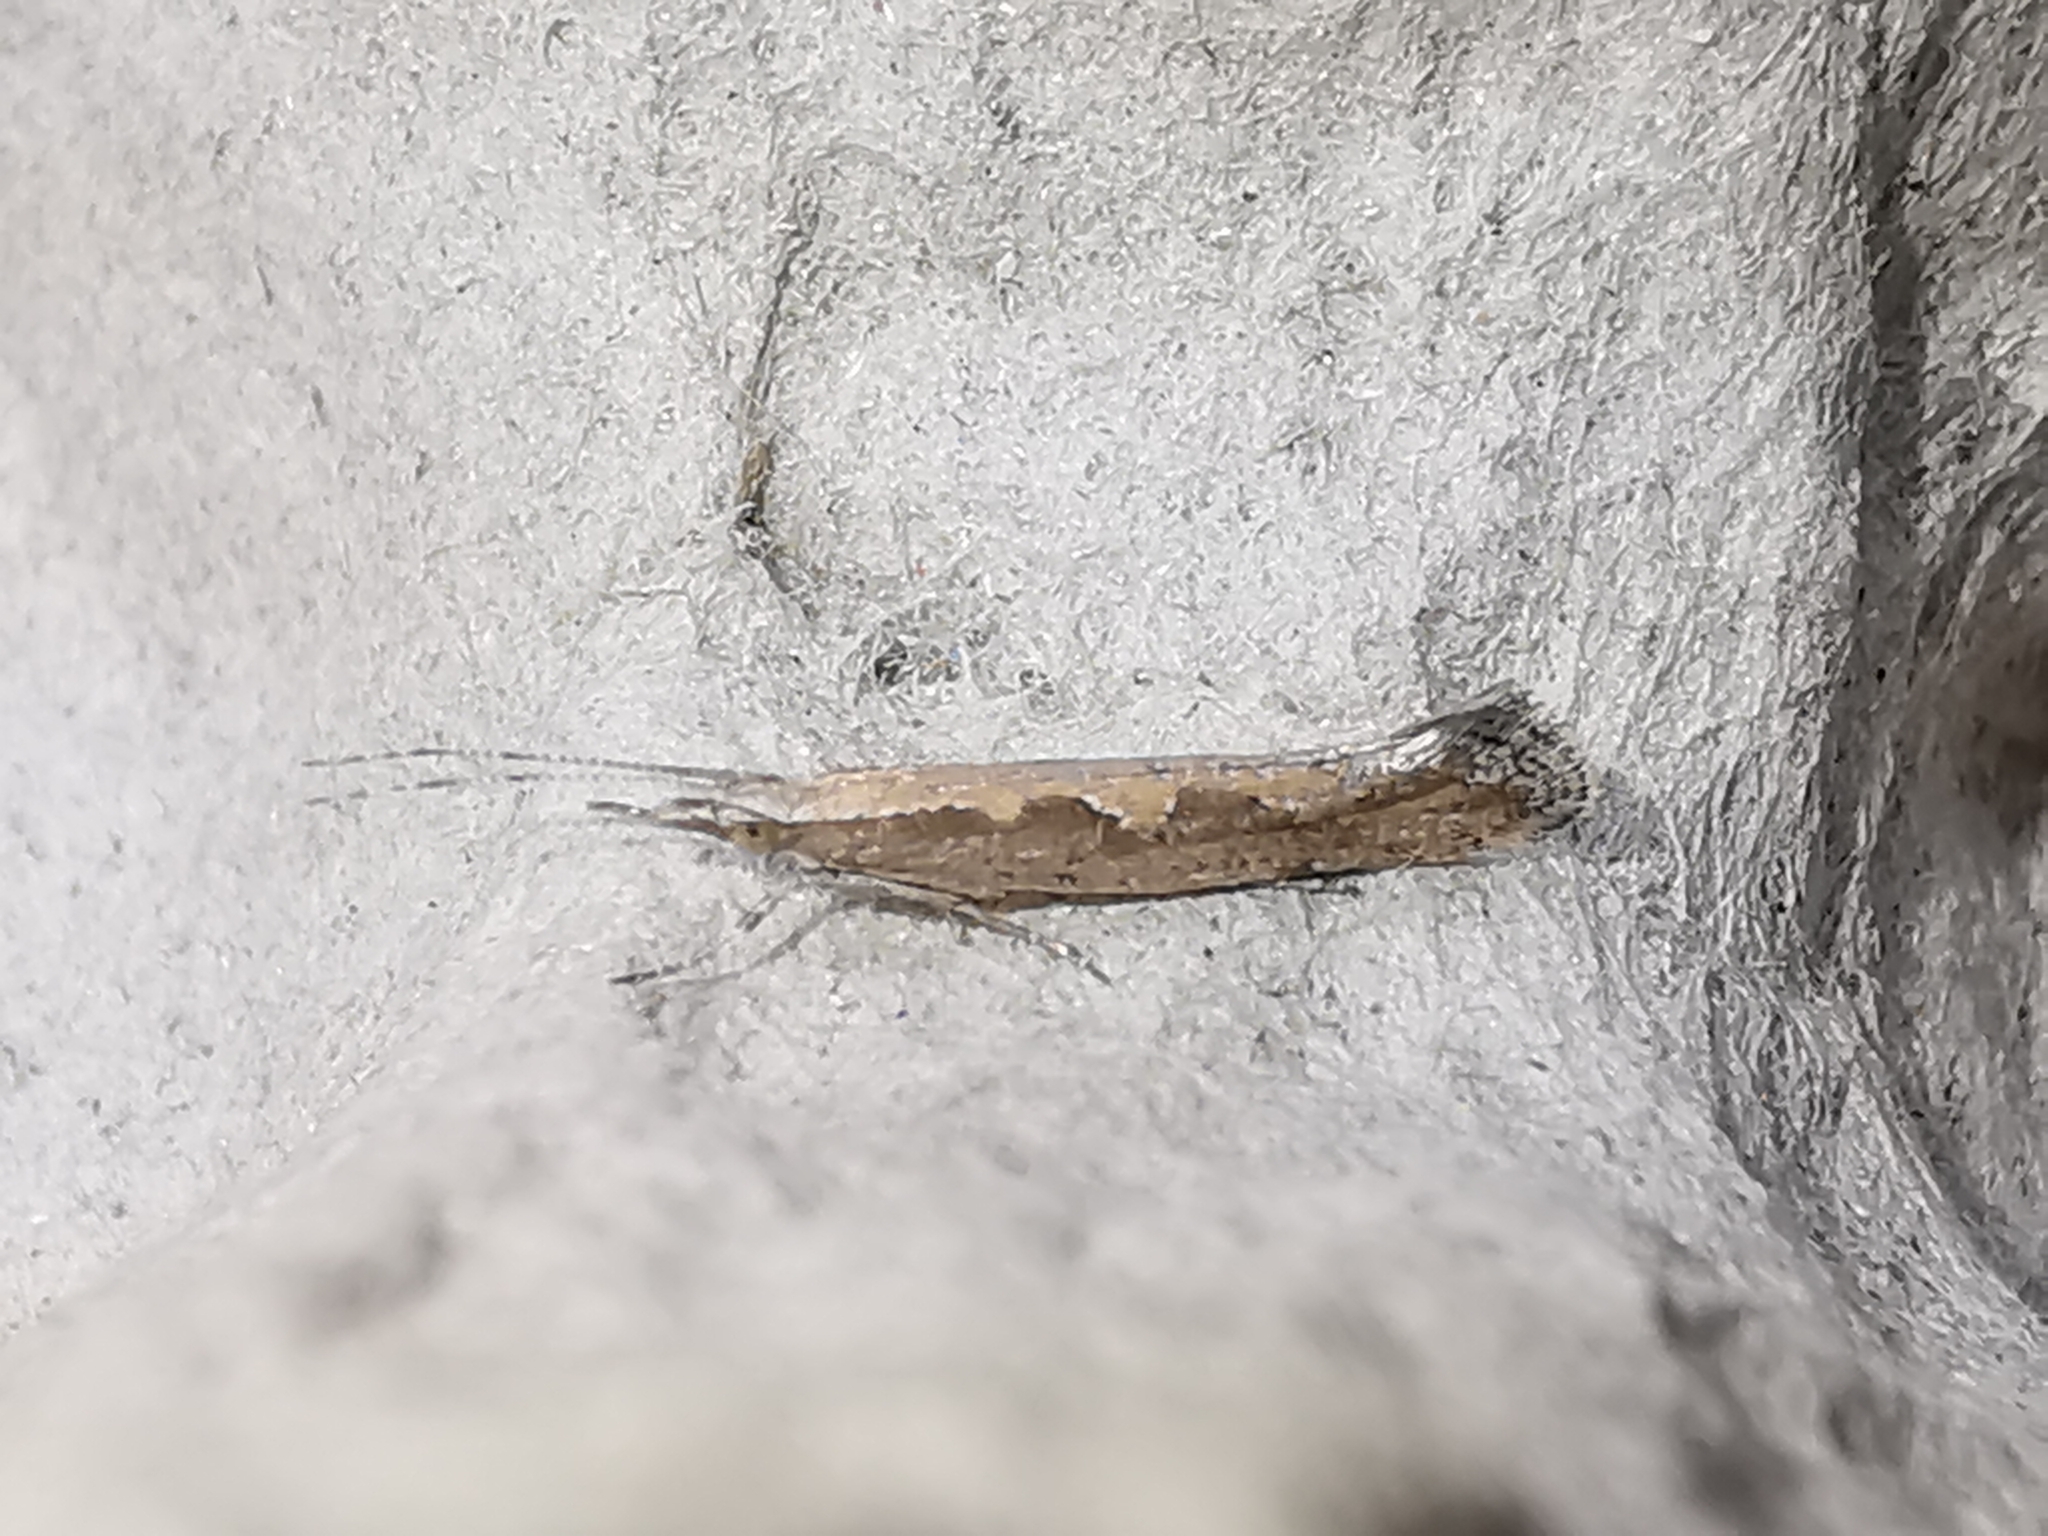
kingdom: Animalia
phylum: Arthropoda
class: Insecta
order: Lepidoptera
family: Plutellidae
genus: Plutella
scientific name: Plutella xylostella
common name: Diamond-back moth
